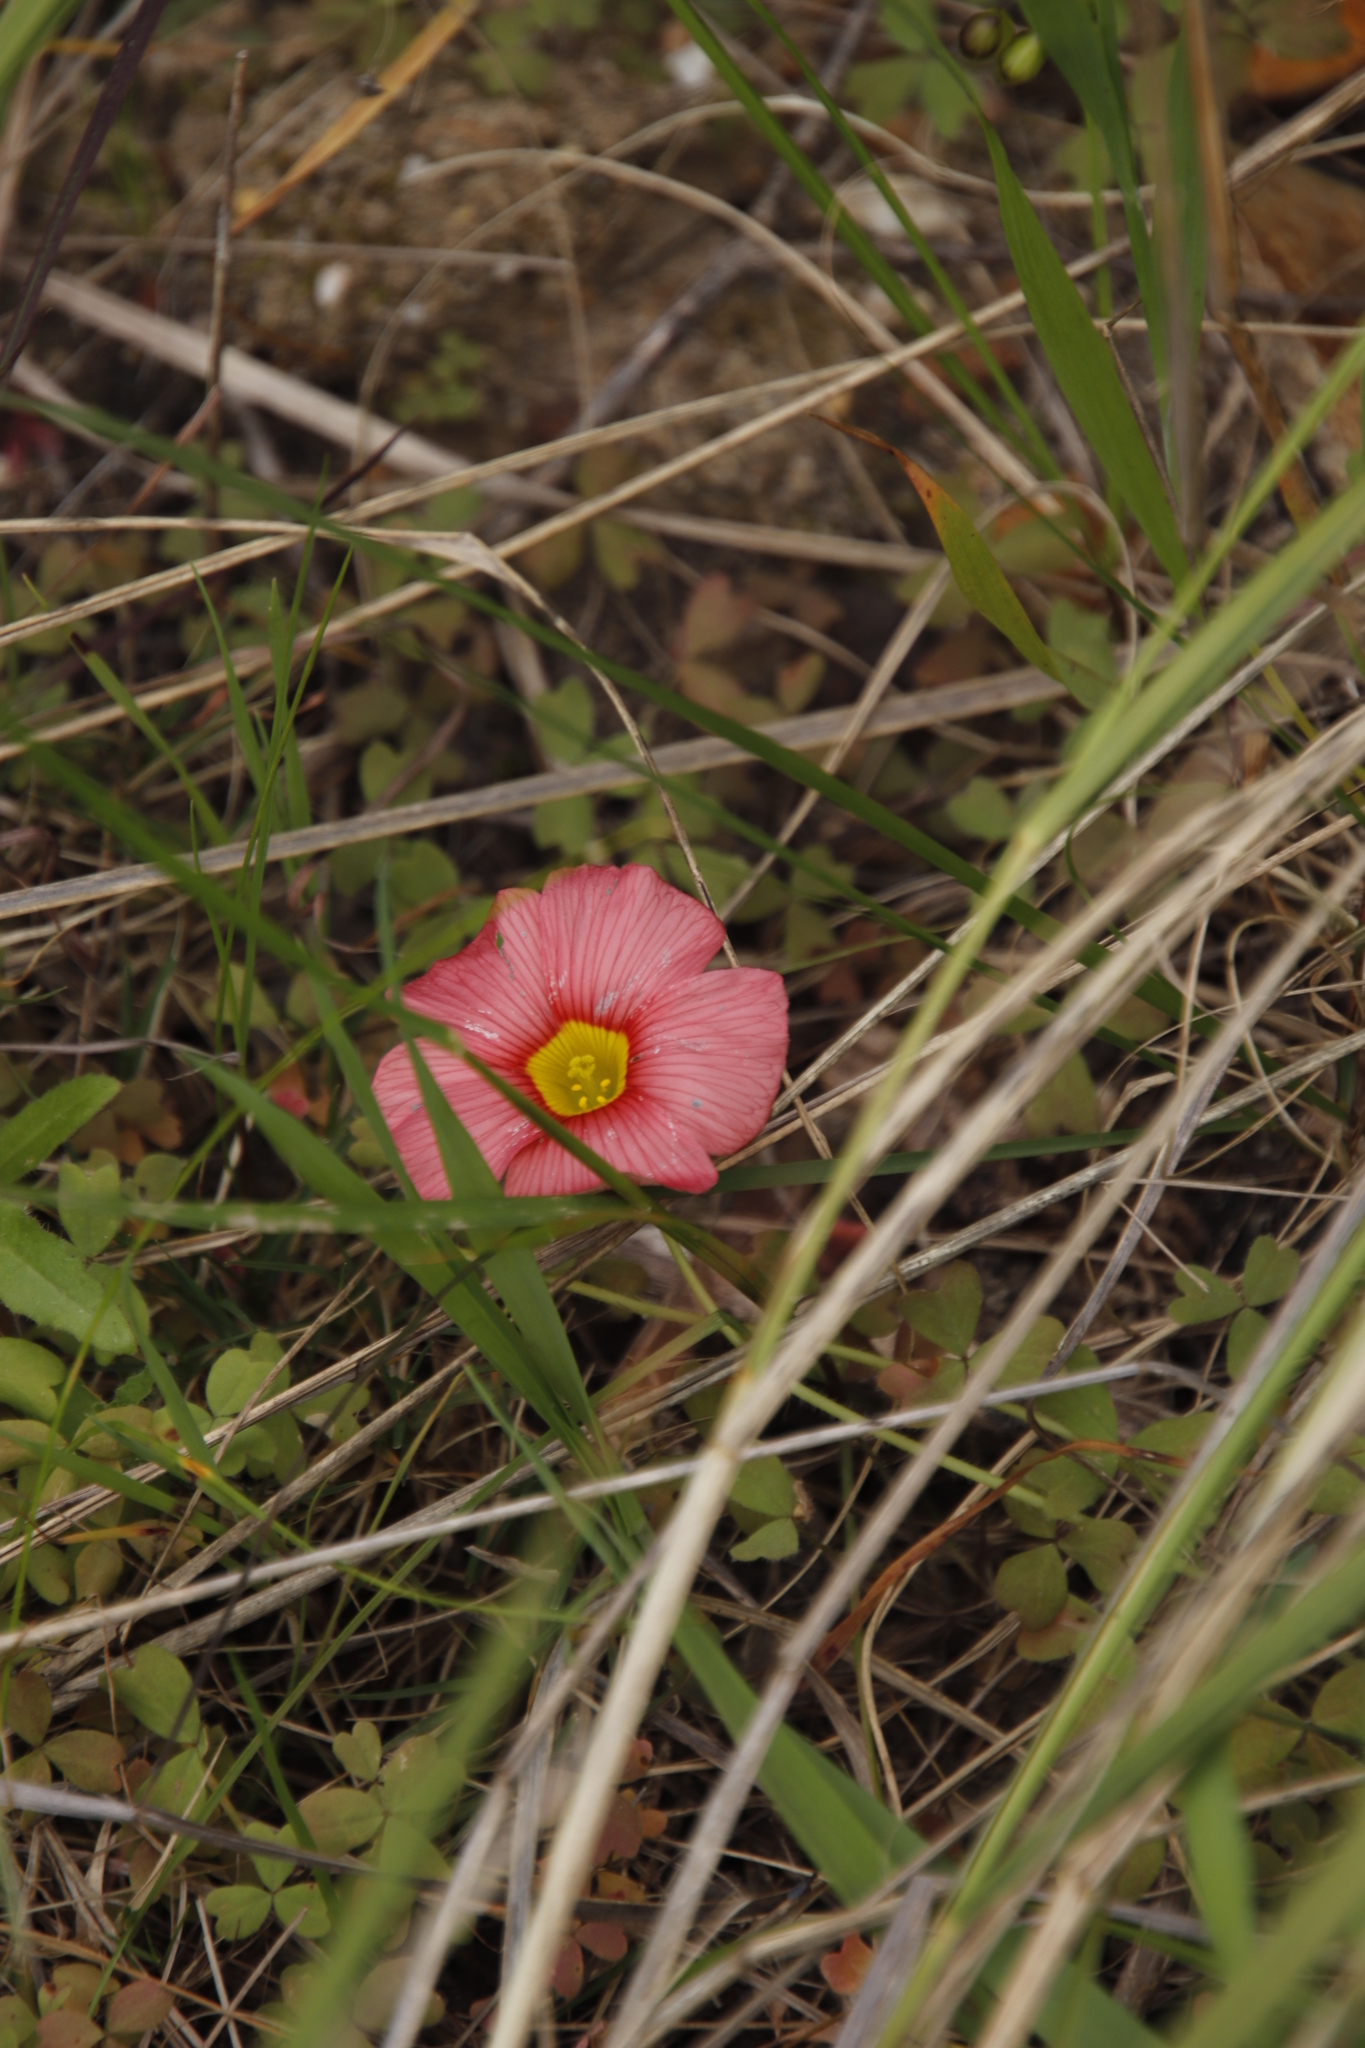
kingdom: Plantae
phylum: Tracheophyta
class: Magnoliopsida
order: Oxalidales
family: Oxalidaceae
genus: Oxalis
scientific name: Oxalis obtusa
